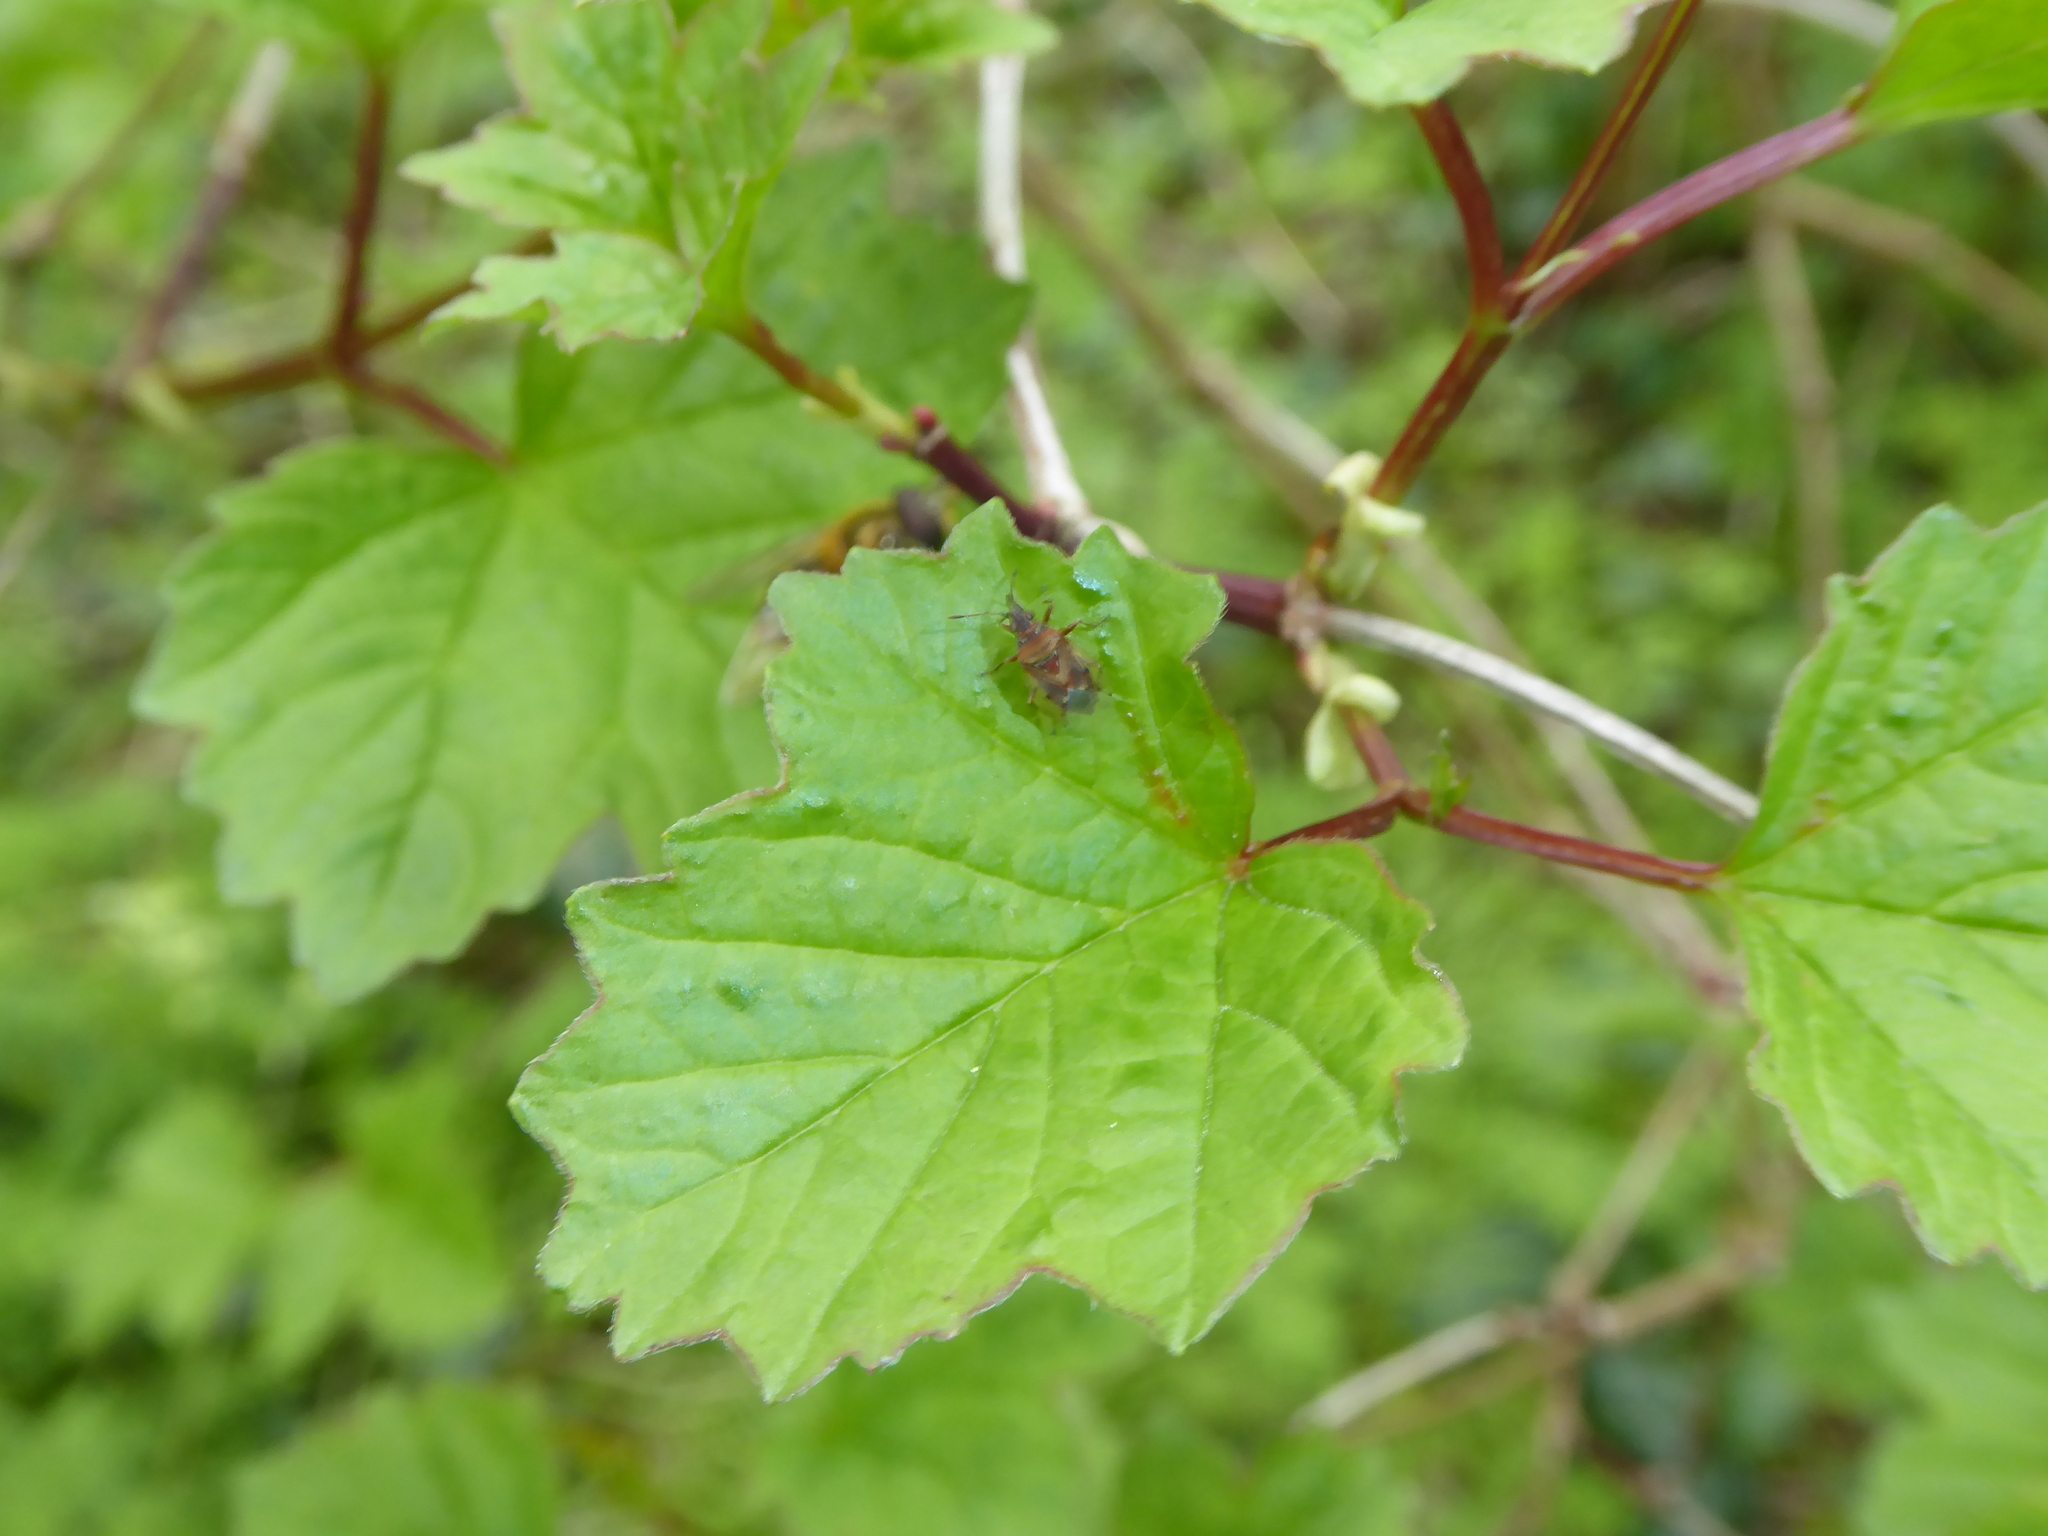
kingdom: Animalia
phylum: Arthropoda
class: Insecta
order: Hemiptera
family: Lygaeidae
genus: Kleidocerys
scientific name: Kleidocerys resedae
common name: Birch catkin bug
